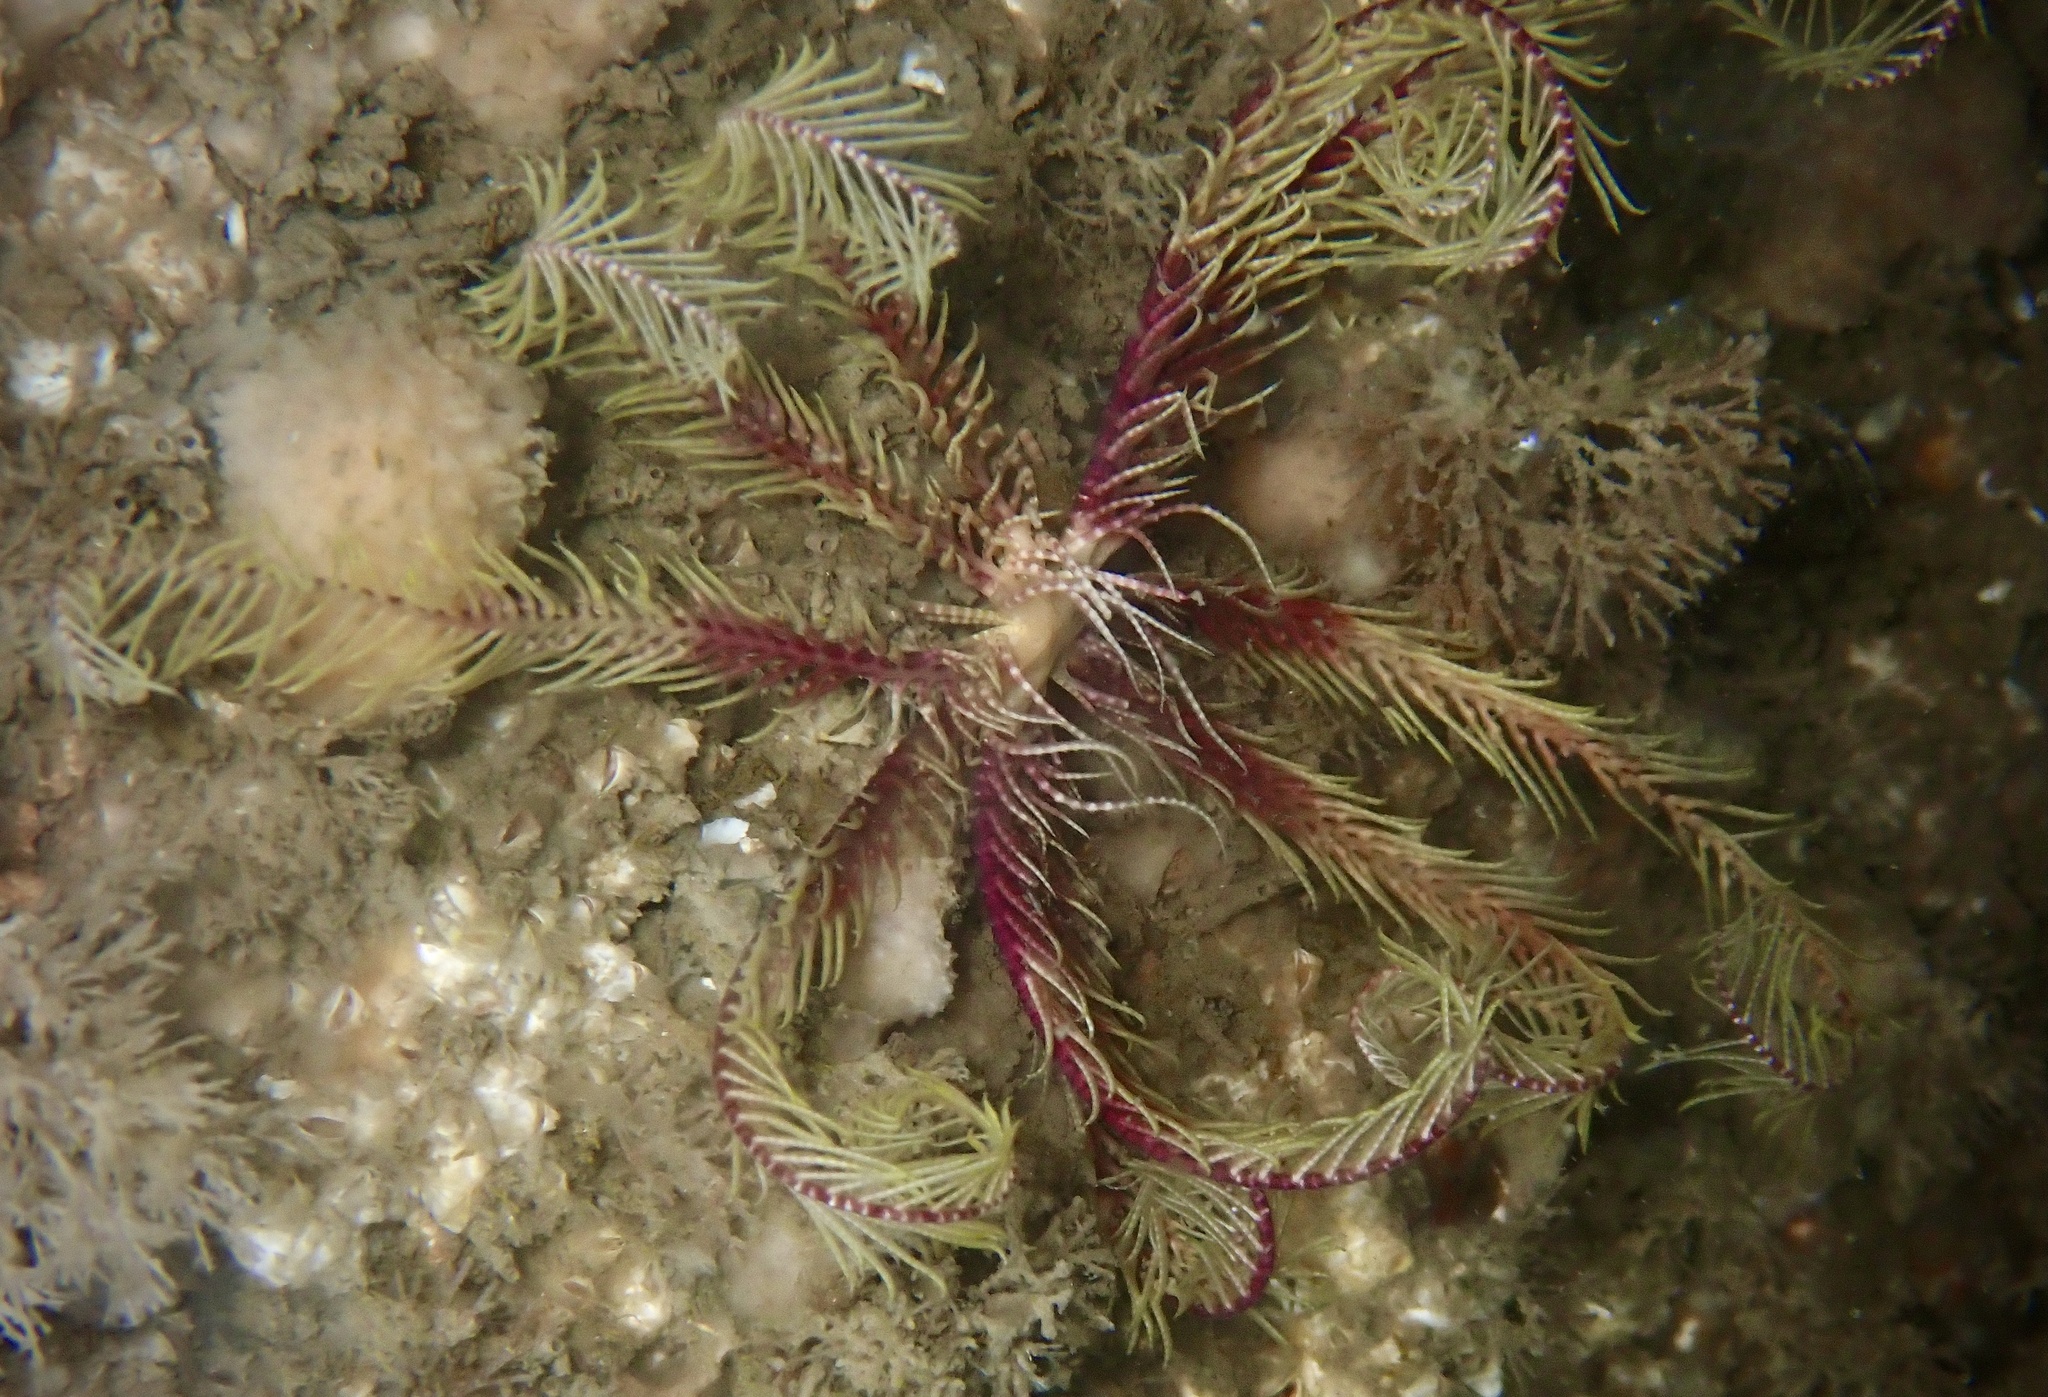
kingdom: Animalia
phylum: Echinodermata
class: Crinoidea
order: Comatulida
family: Antedonidae
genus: Antedon
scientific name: Antedon bifida
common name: Rosy feather-star
